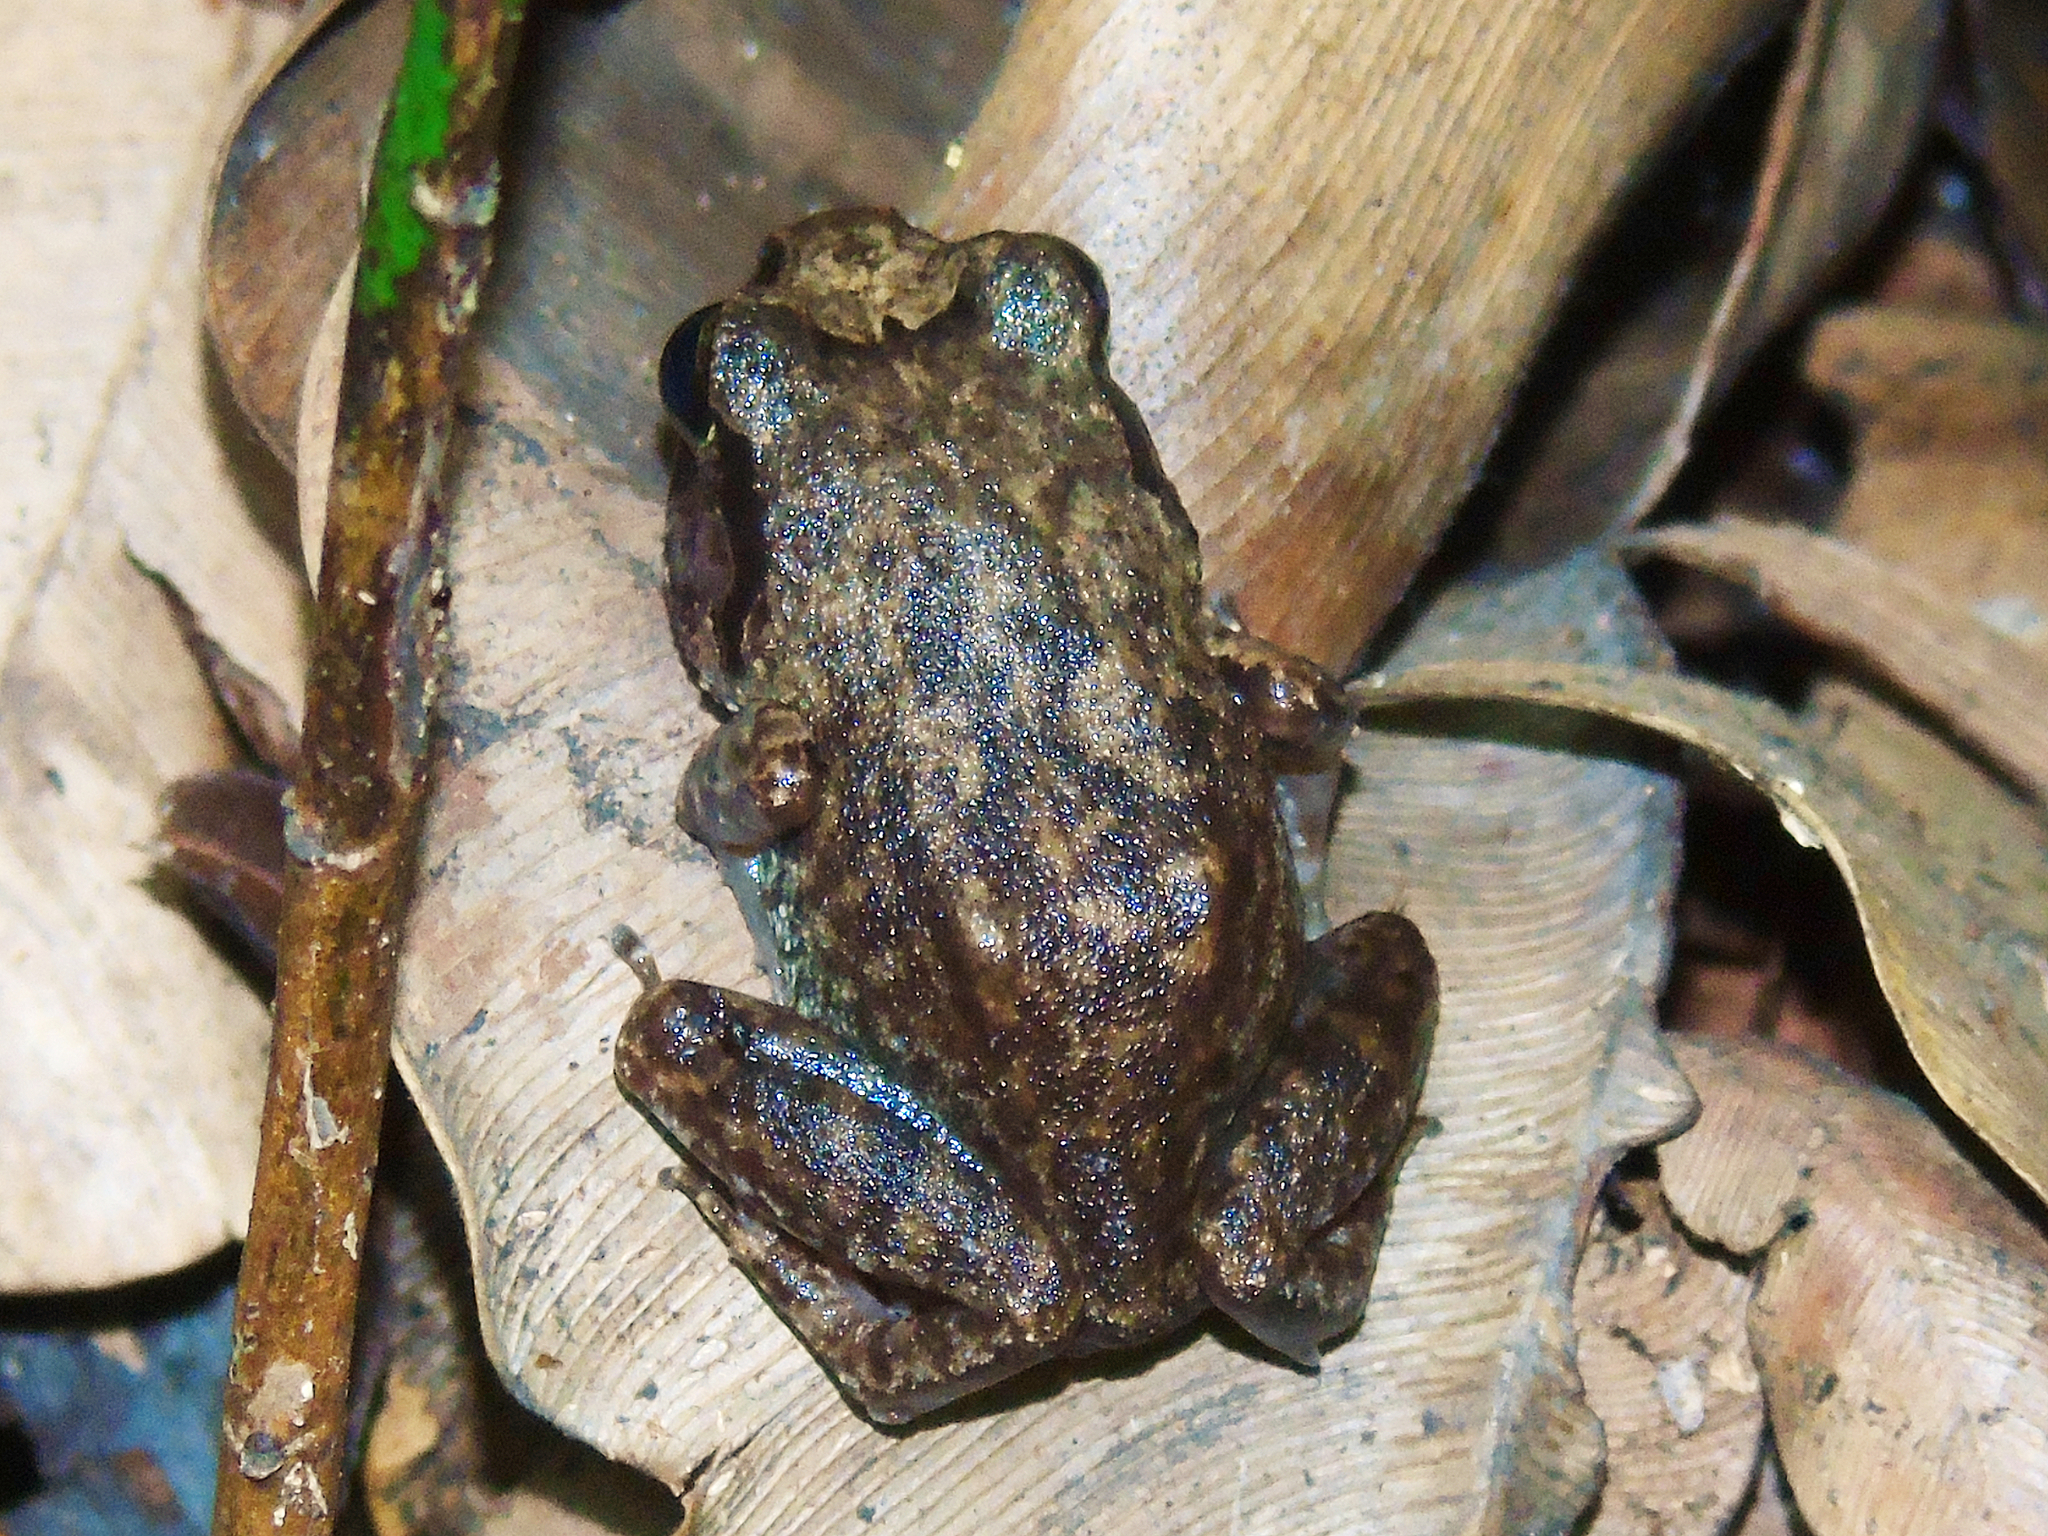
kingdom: Animalia
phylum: Chordata
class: Amphibia
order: Anura
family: Arthroleptidae
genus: Arthroleptis
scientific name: Arthroleptis stenodactylus
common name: Dune squeaker
